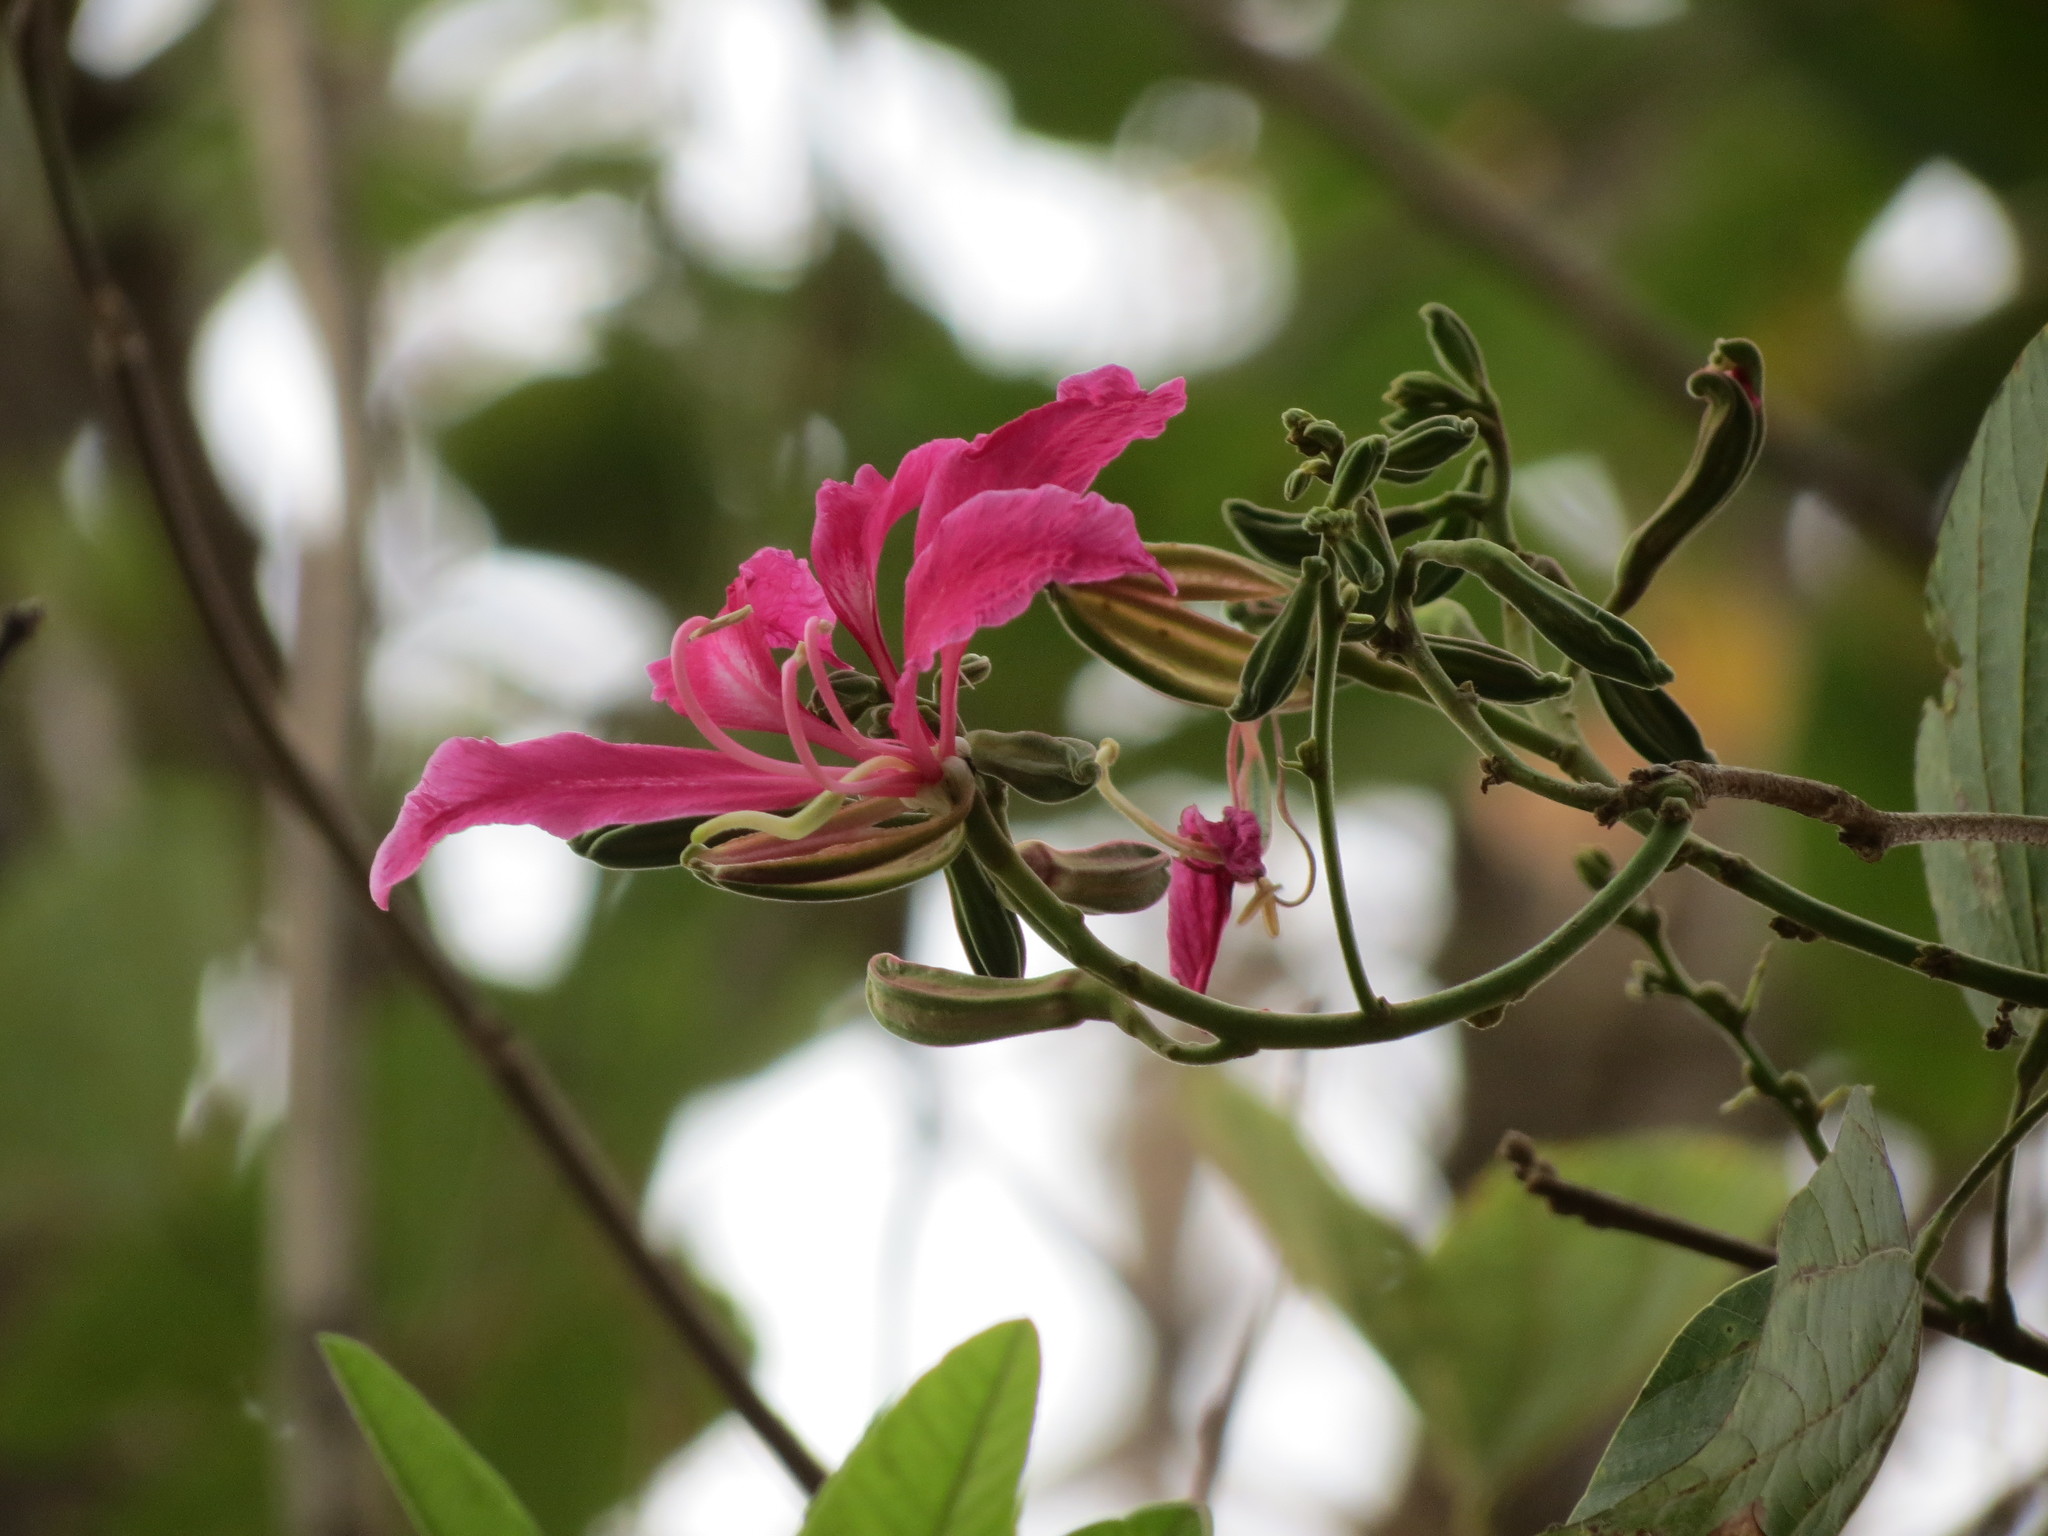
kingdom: Plantae
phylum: Tracheophyta
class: Magnoliopsida
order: Fabales
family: Fabaceae
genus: Bauhinia
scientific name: Bauhinia purpurea
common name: Butterfly-tree
